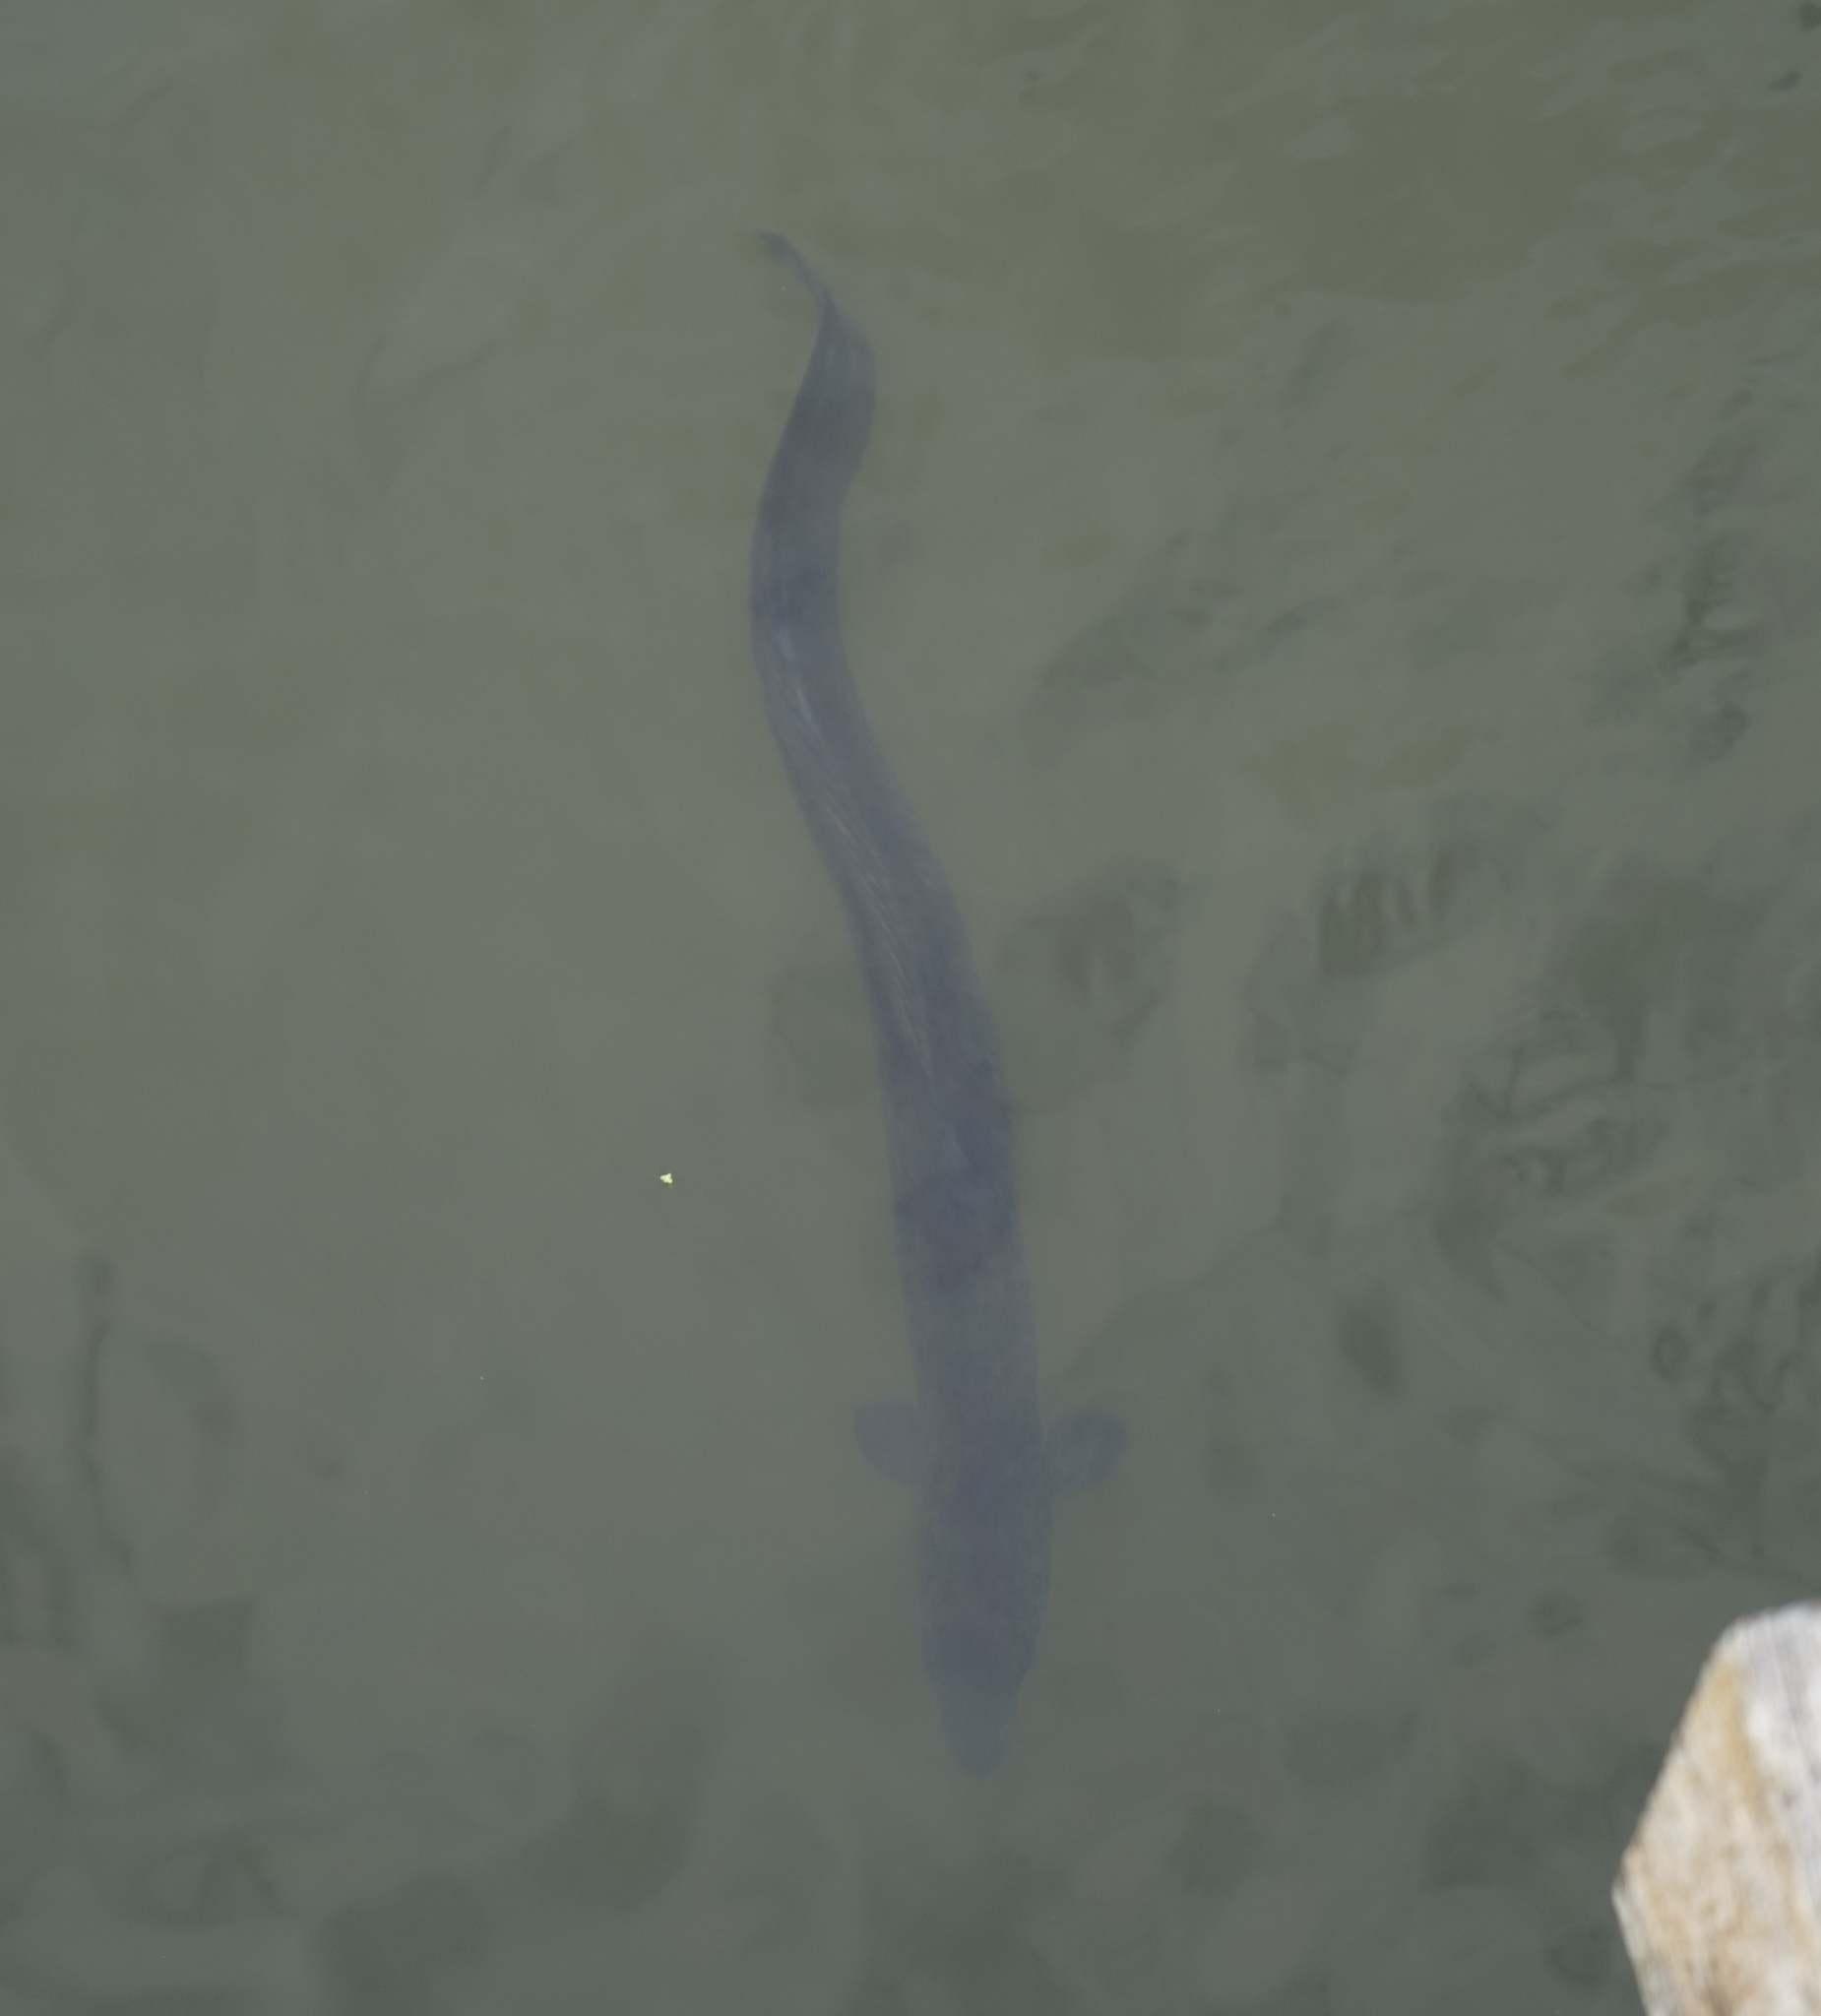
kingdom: Animalia
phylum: Chordata
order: Anguilliformes
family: Anguillidae
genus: Anguilla
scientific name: Anguilla reinhardtii
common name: Longfin eel
